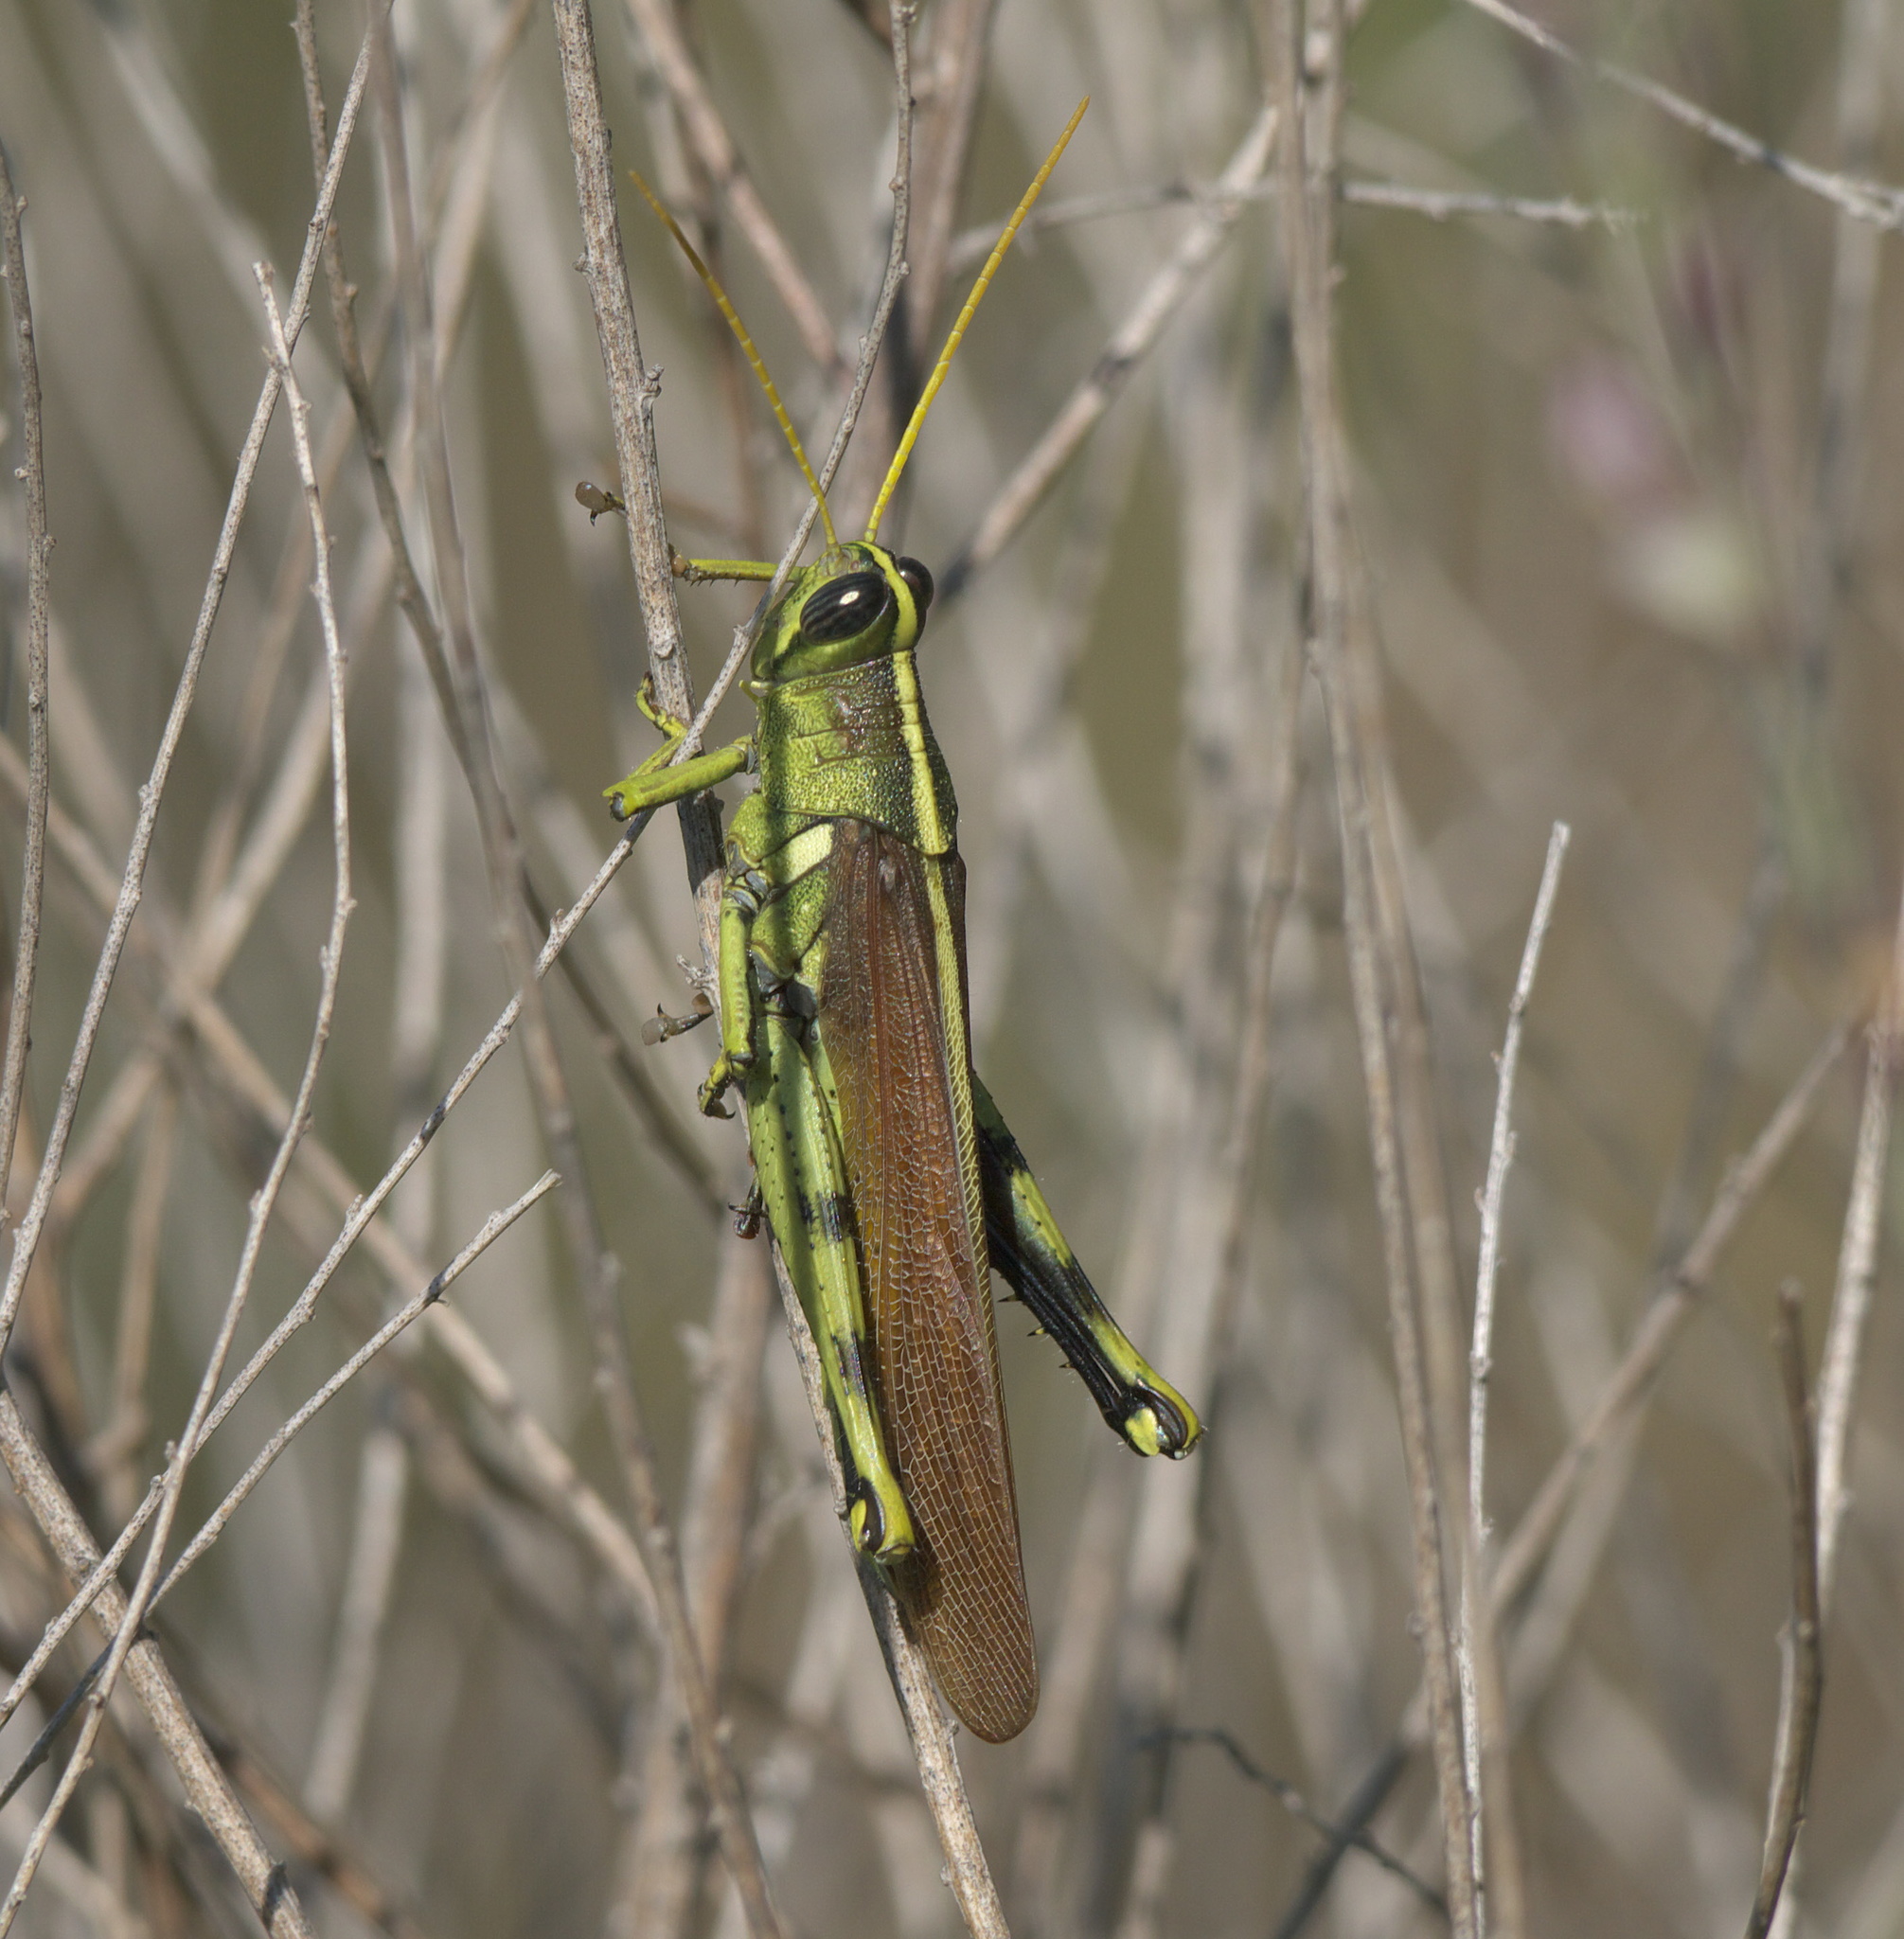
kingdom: Animalia
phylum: Arthropoda
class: Insecta
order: Orthoptera
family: Acrididae
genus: Schistocerca
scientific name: Schistocerca obscura
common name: Obscure bird grasshopper
